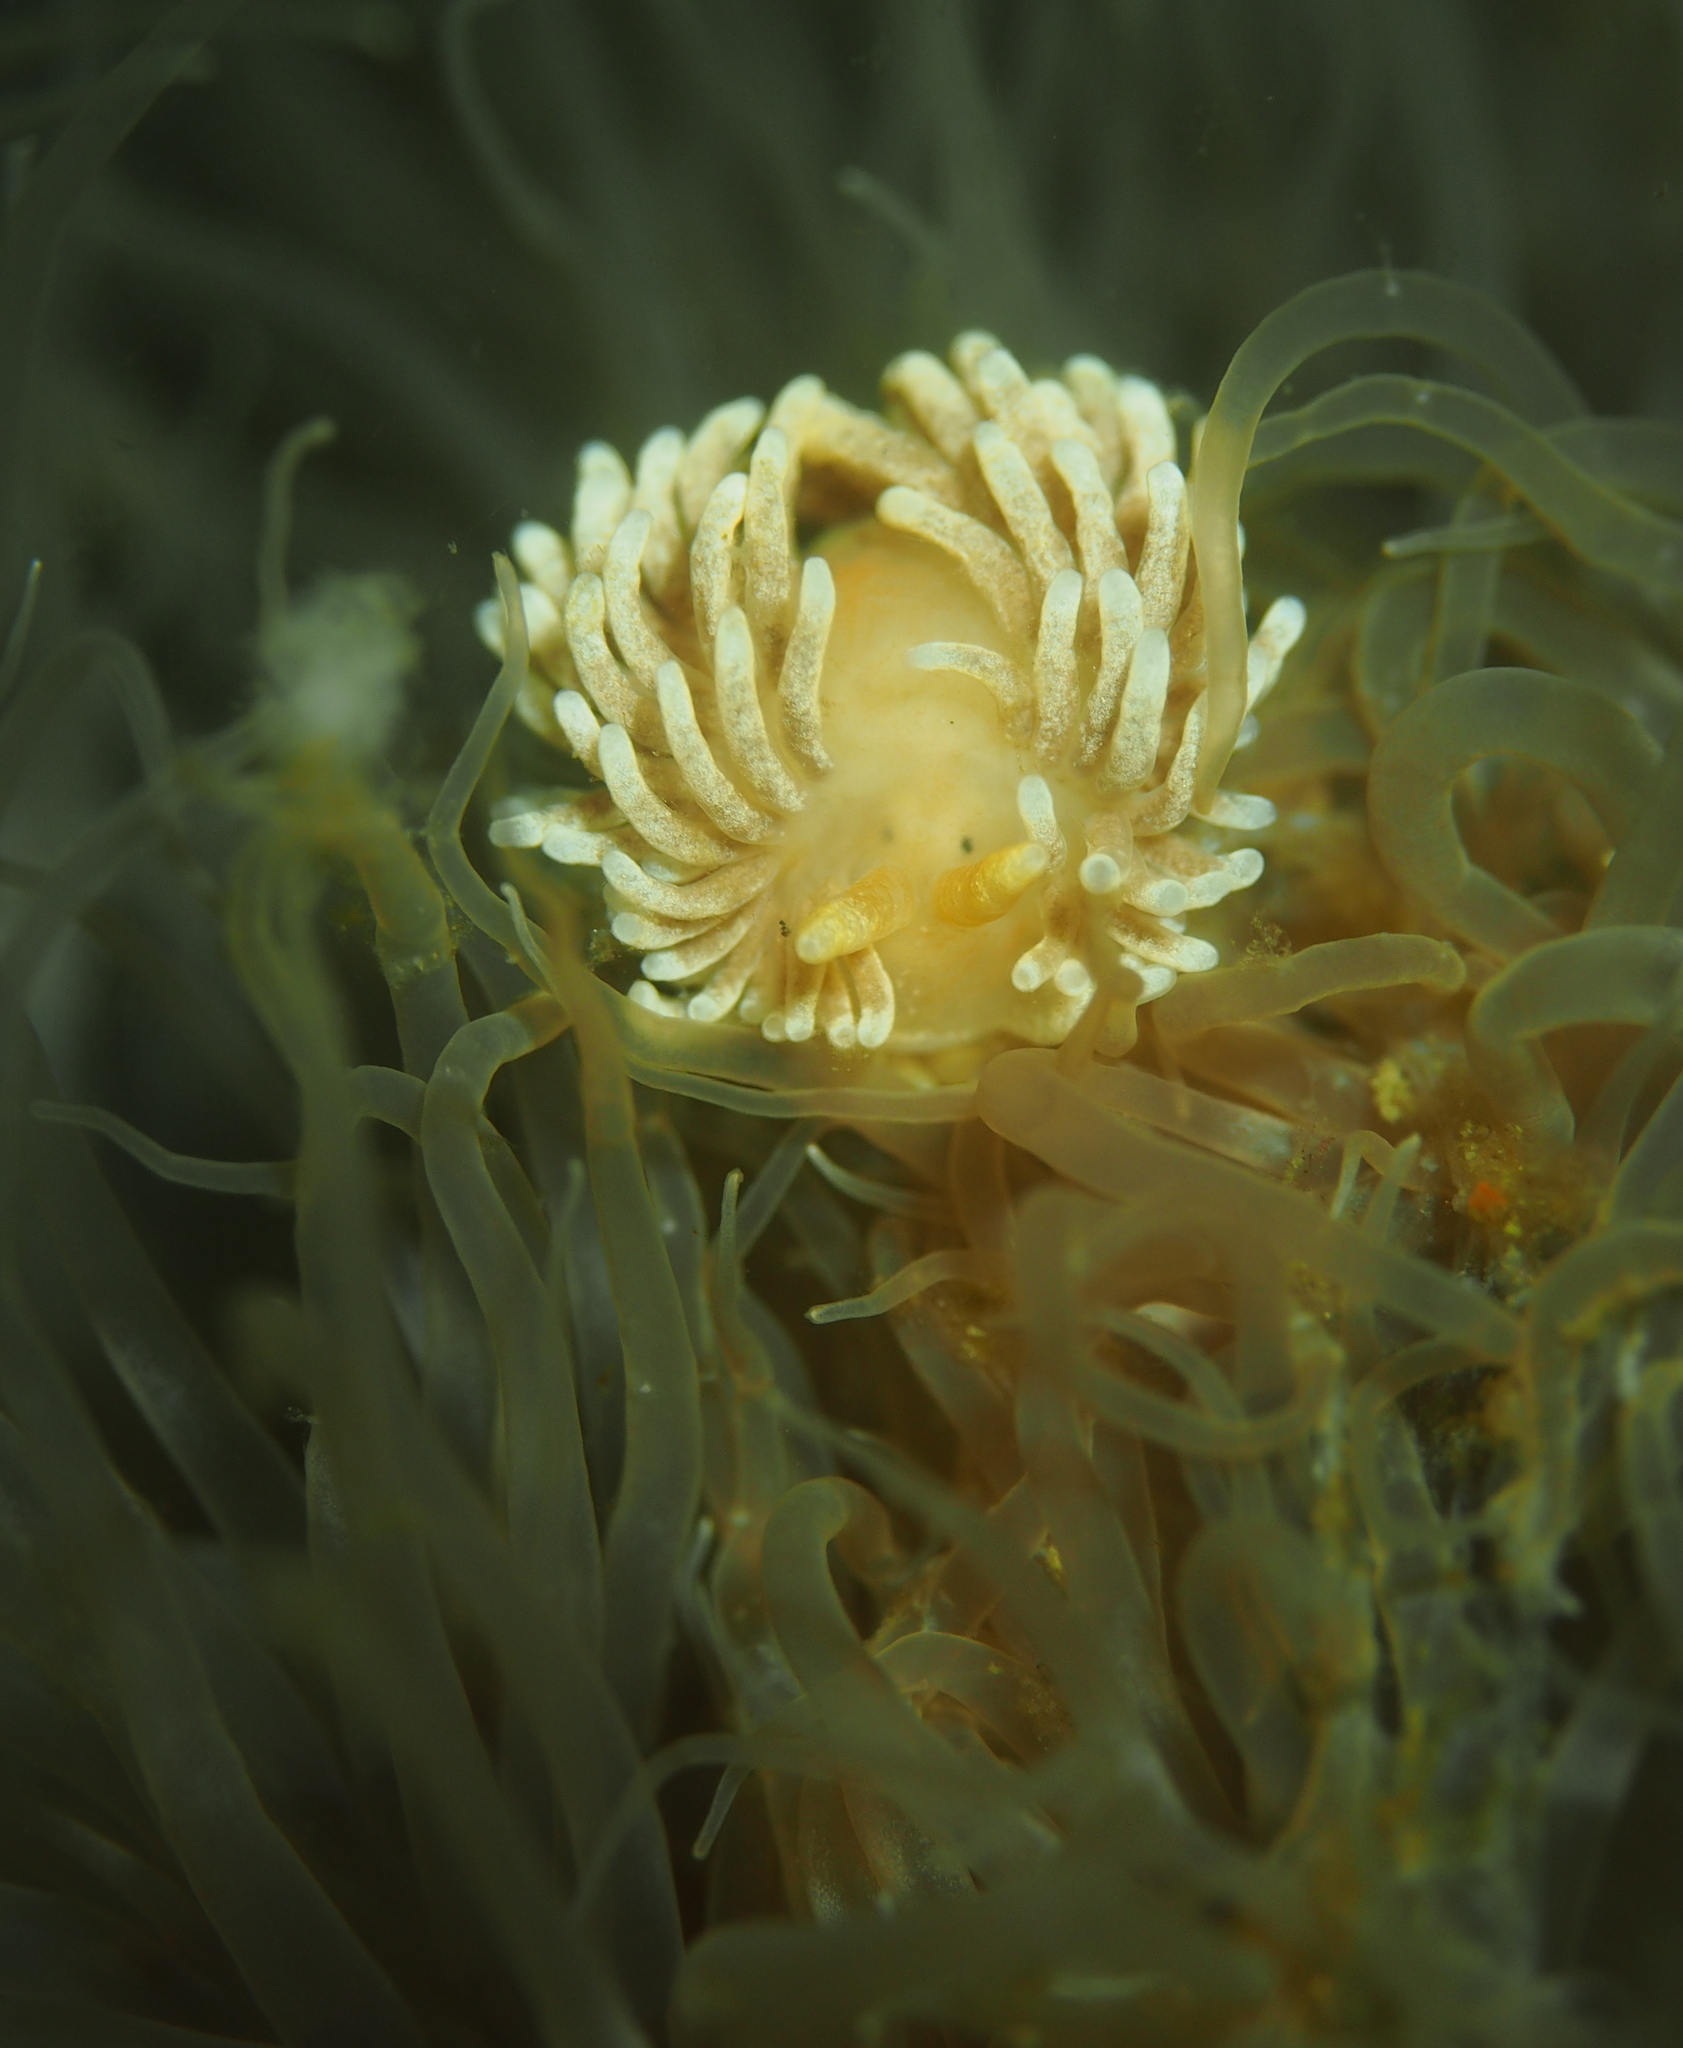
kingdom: Animalia
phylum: Mollusca
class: Gastropoda
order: Nudibranchia
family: Aeolidiidae
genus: Aeolidiella
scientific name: Aeolidiella glauca
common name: Orange-brown aeolid
